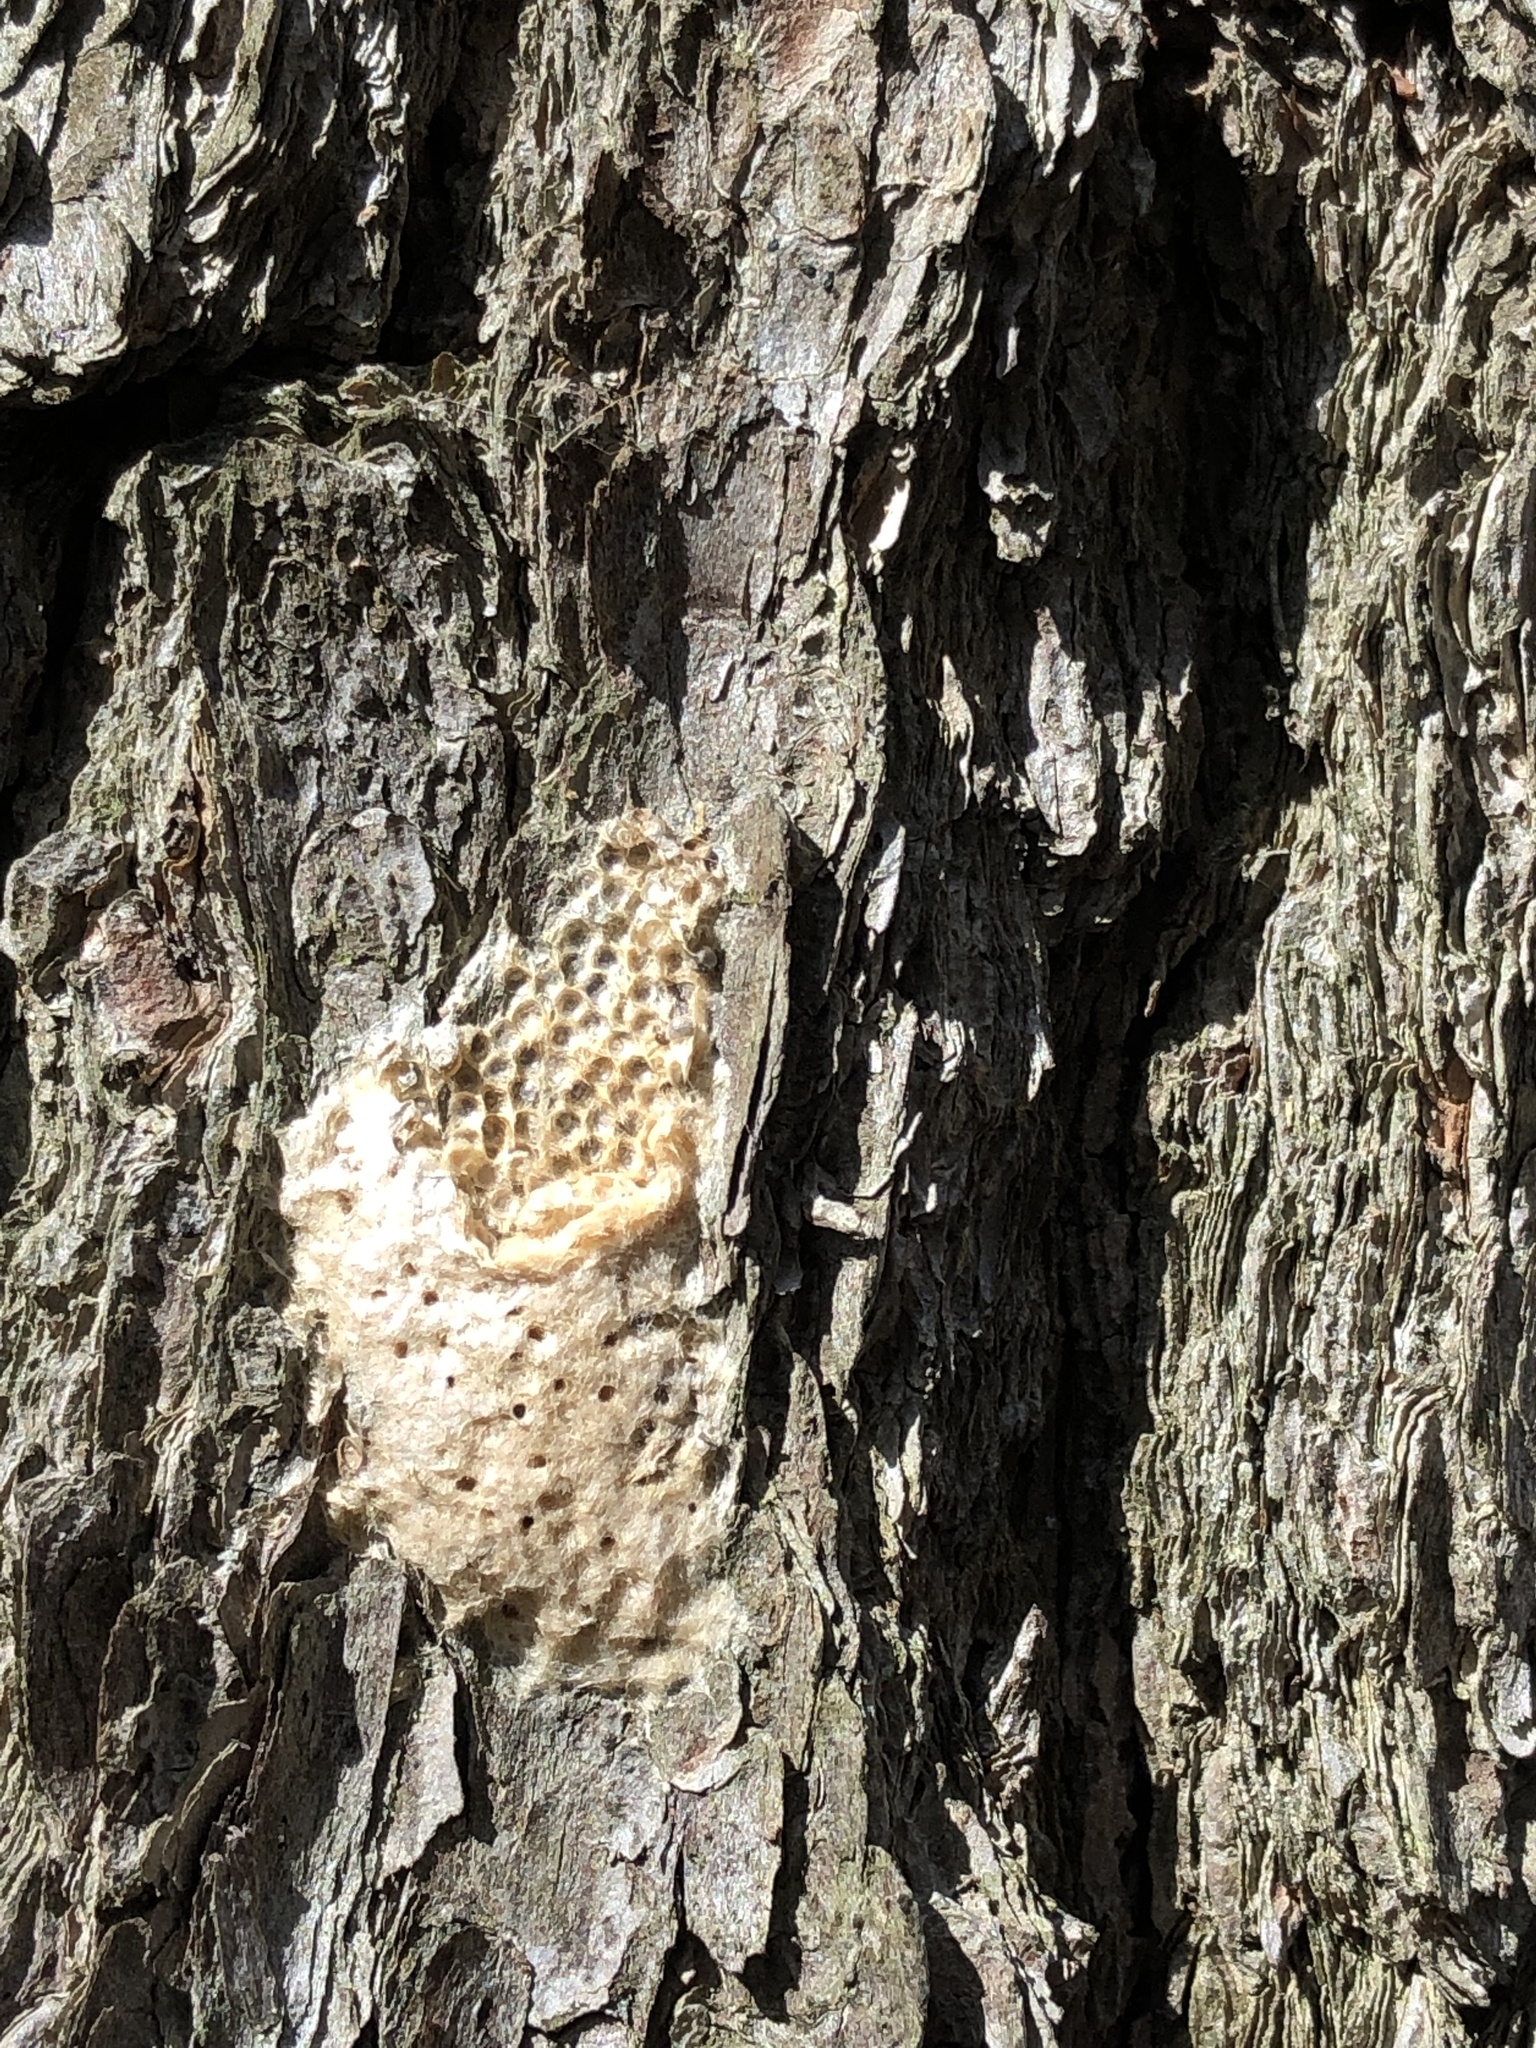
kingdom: Animalia
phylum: Arthropoda
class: Insecta
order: Lepidoptera
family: Erebidae
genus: Lymantria
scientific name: Lymantria dispar
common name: Gypsy moth
